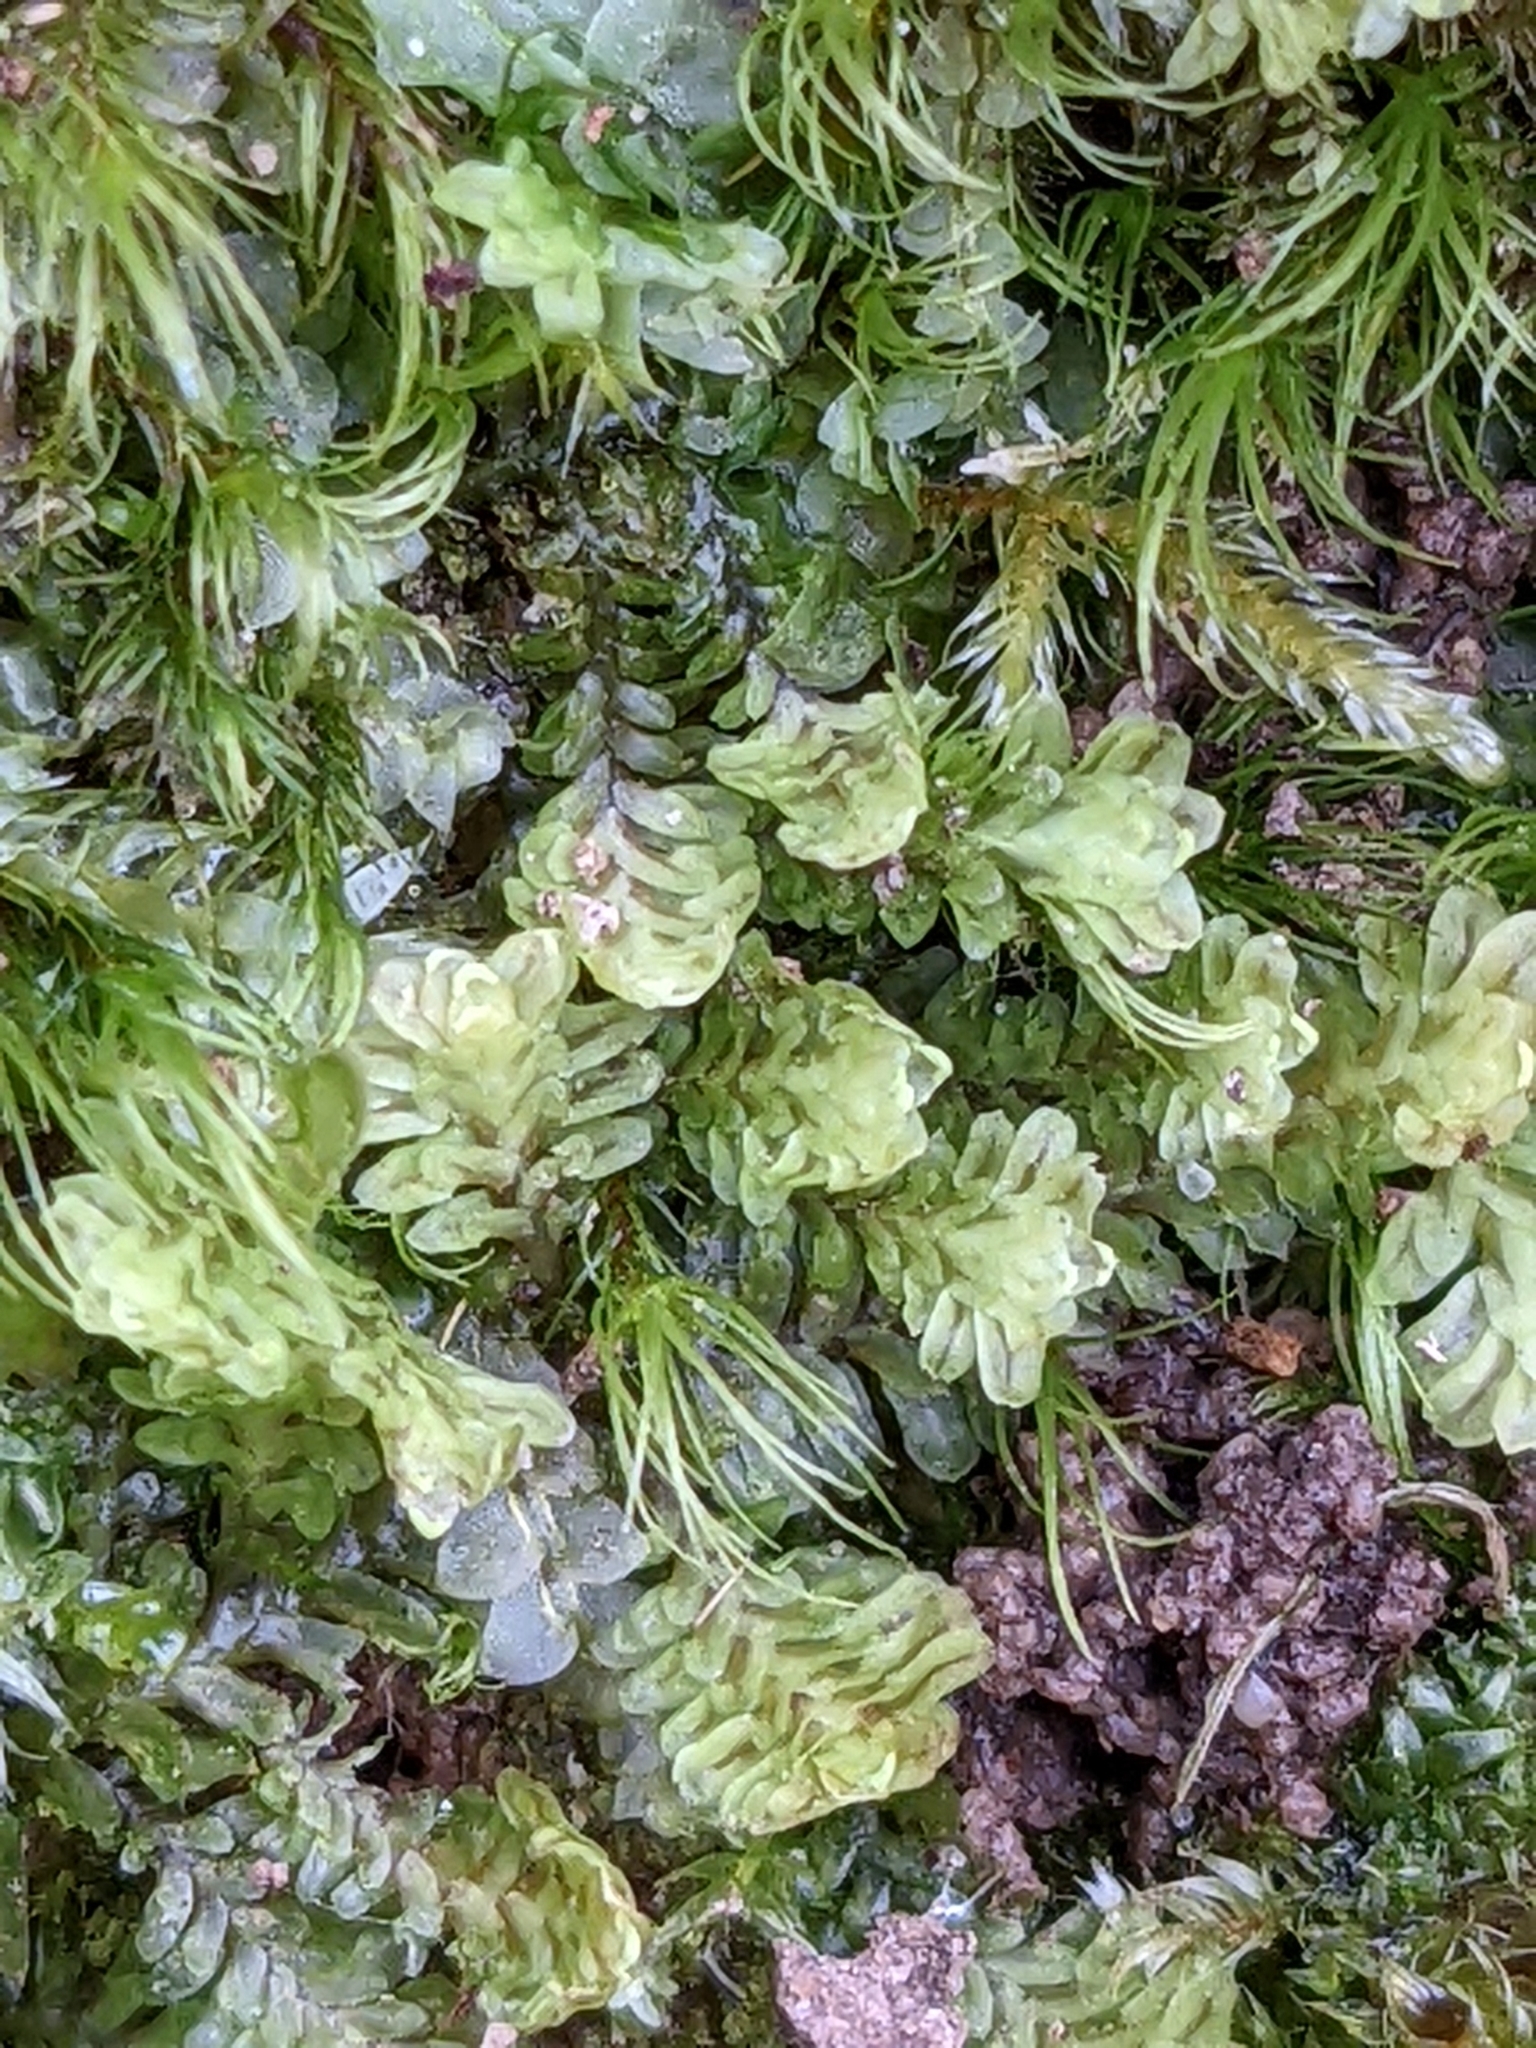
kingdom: Plantae
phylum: Marchantiophyta
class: Jungermanniopsida
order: Jungermanniales
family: Scapaniaceae
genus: Diplophyllum
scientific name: Diplophyllum albicans
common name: White earwort
